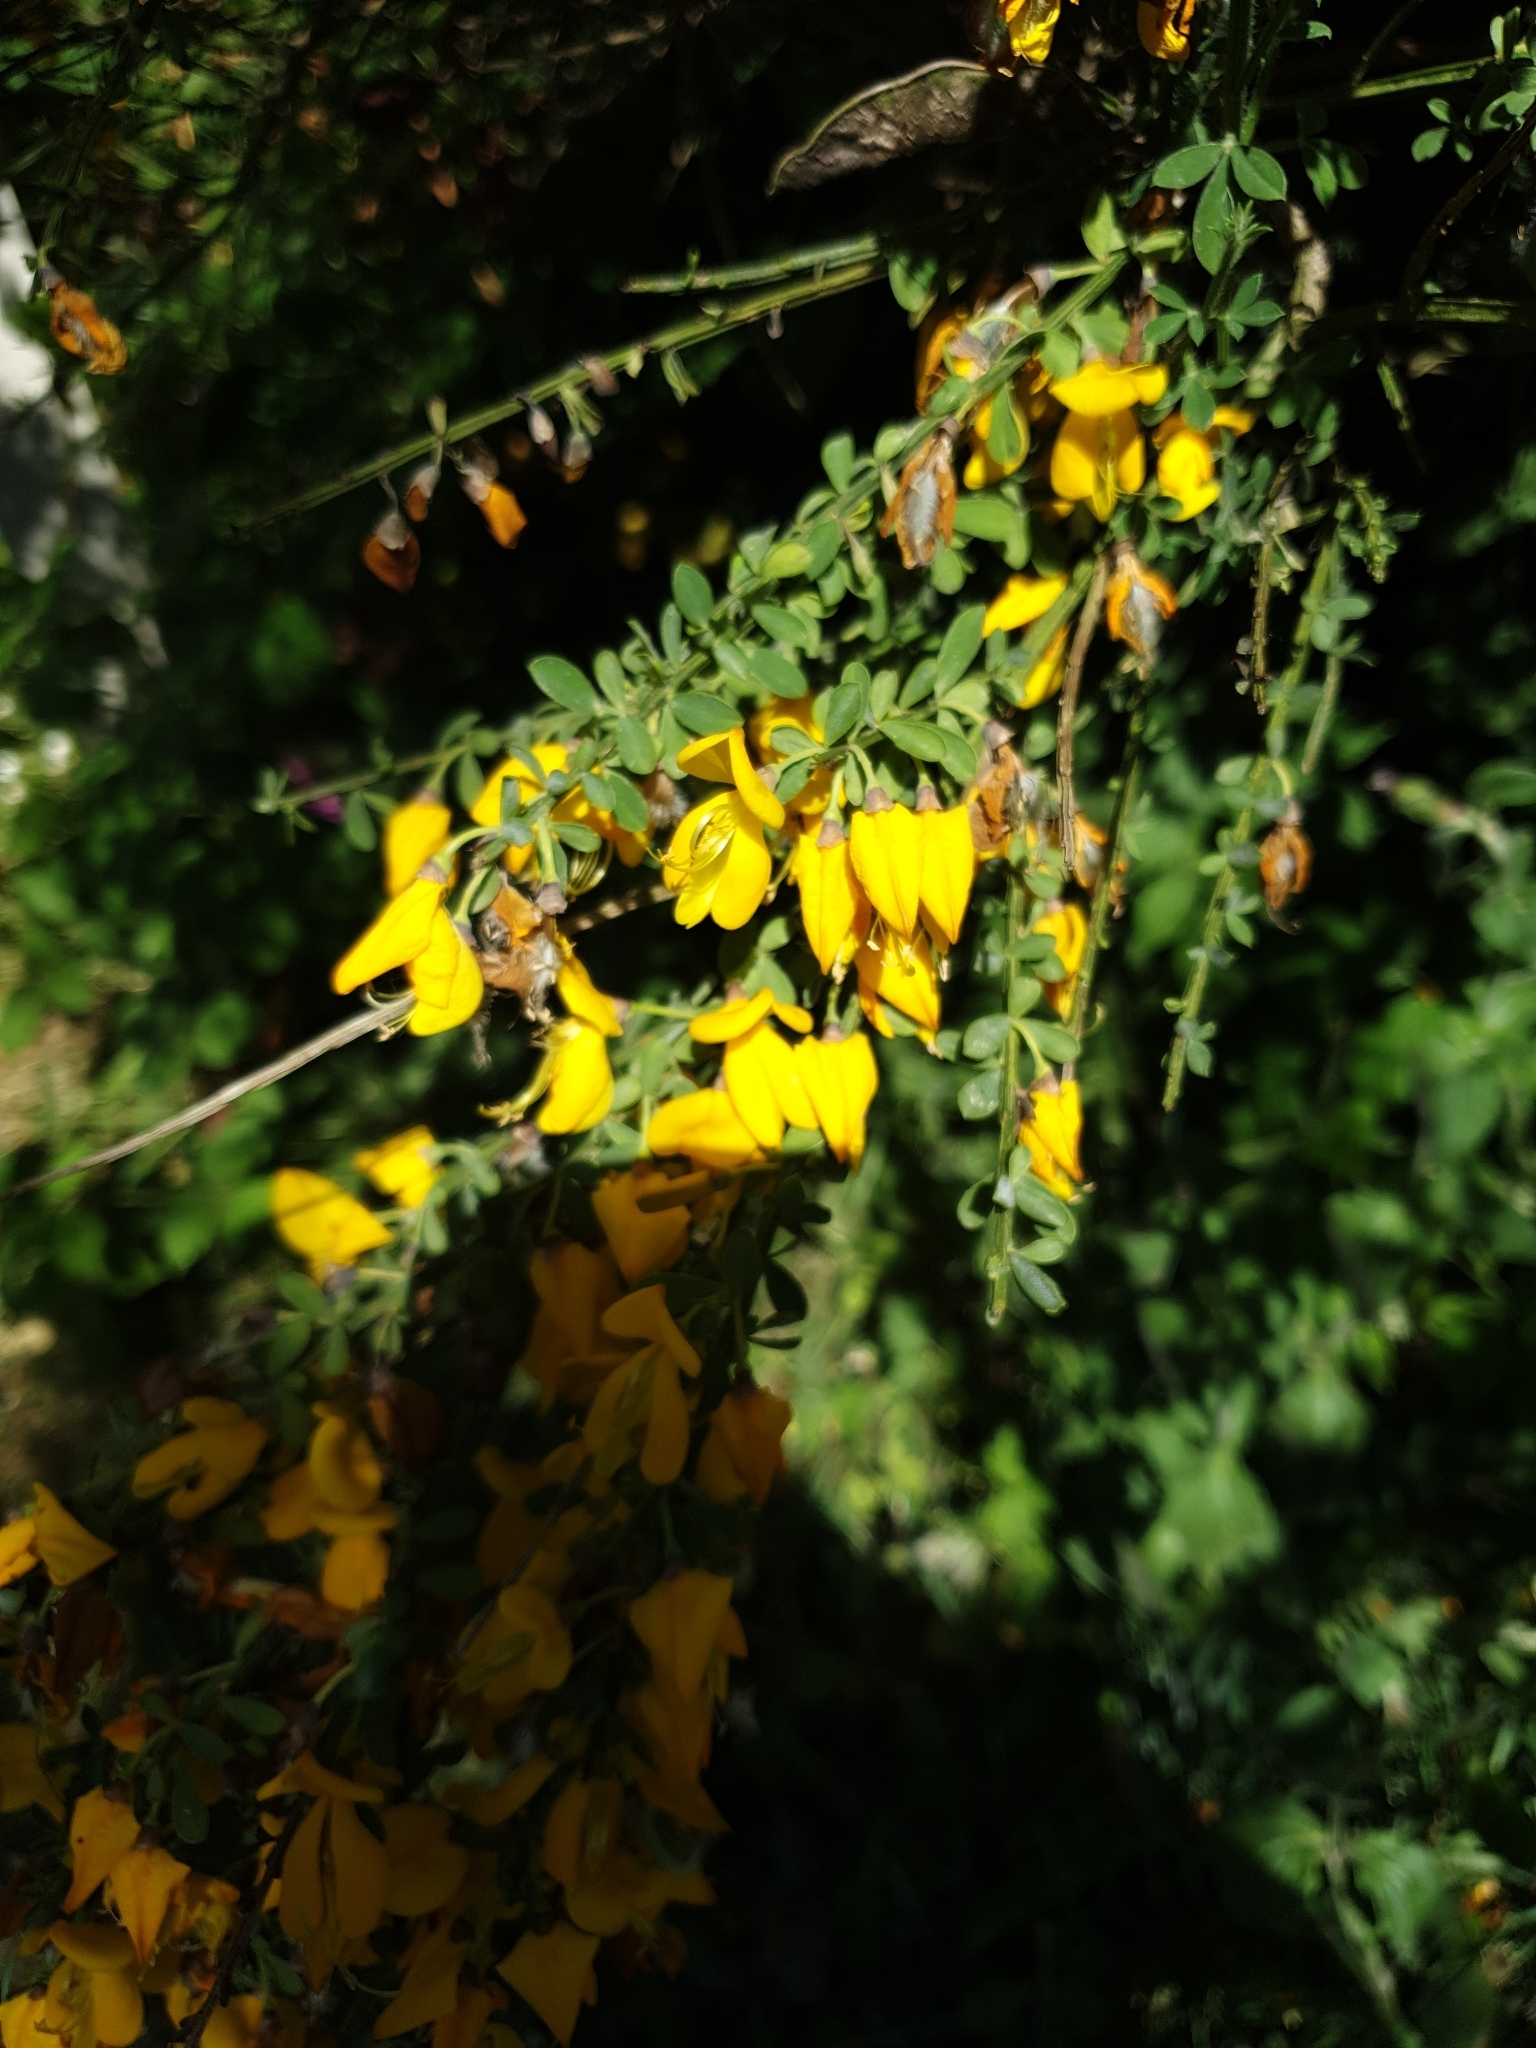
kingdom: Plantae
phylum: Tracheophyta
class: Magnoliopsida
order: Fabales
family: Fabaceae
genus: Cytisus
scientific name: Cytisus scoparius
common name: Scotch broom
